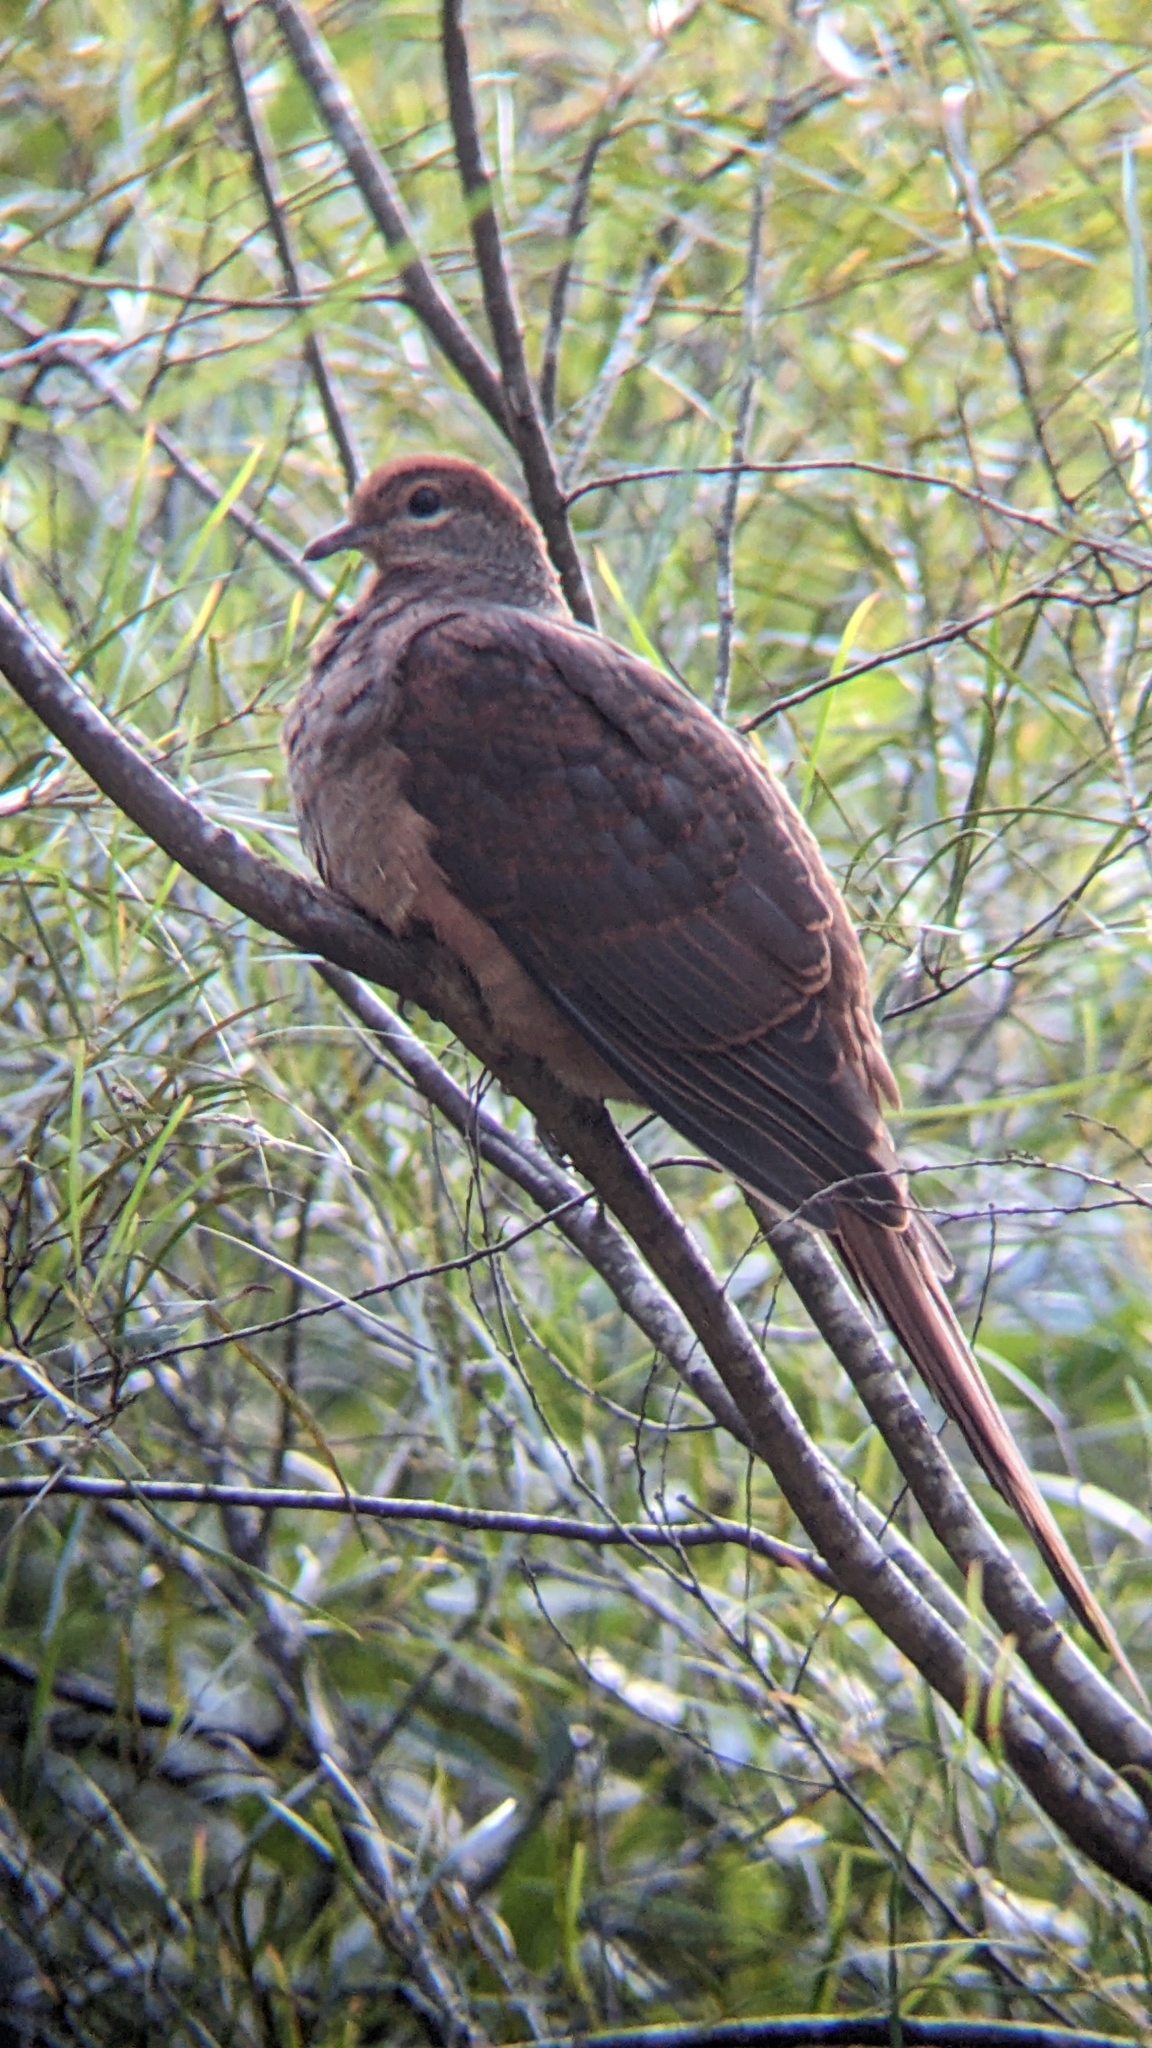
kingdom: Animalia
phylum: Chordata
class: Aves
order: Columbiformes
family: Columbidae
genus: Macropygia
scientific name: Macropygia phasianella
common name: Brown cuckoo-dove
